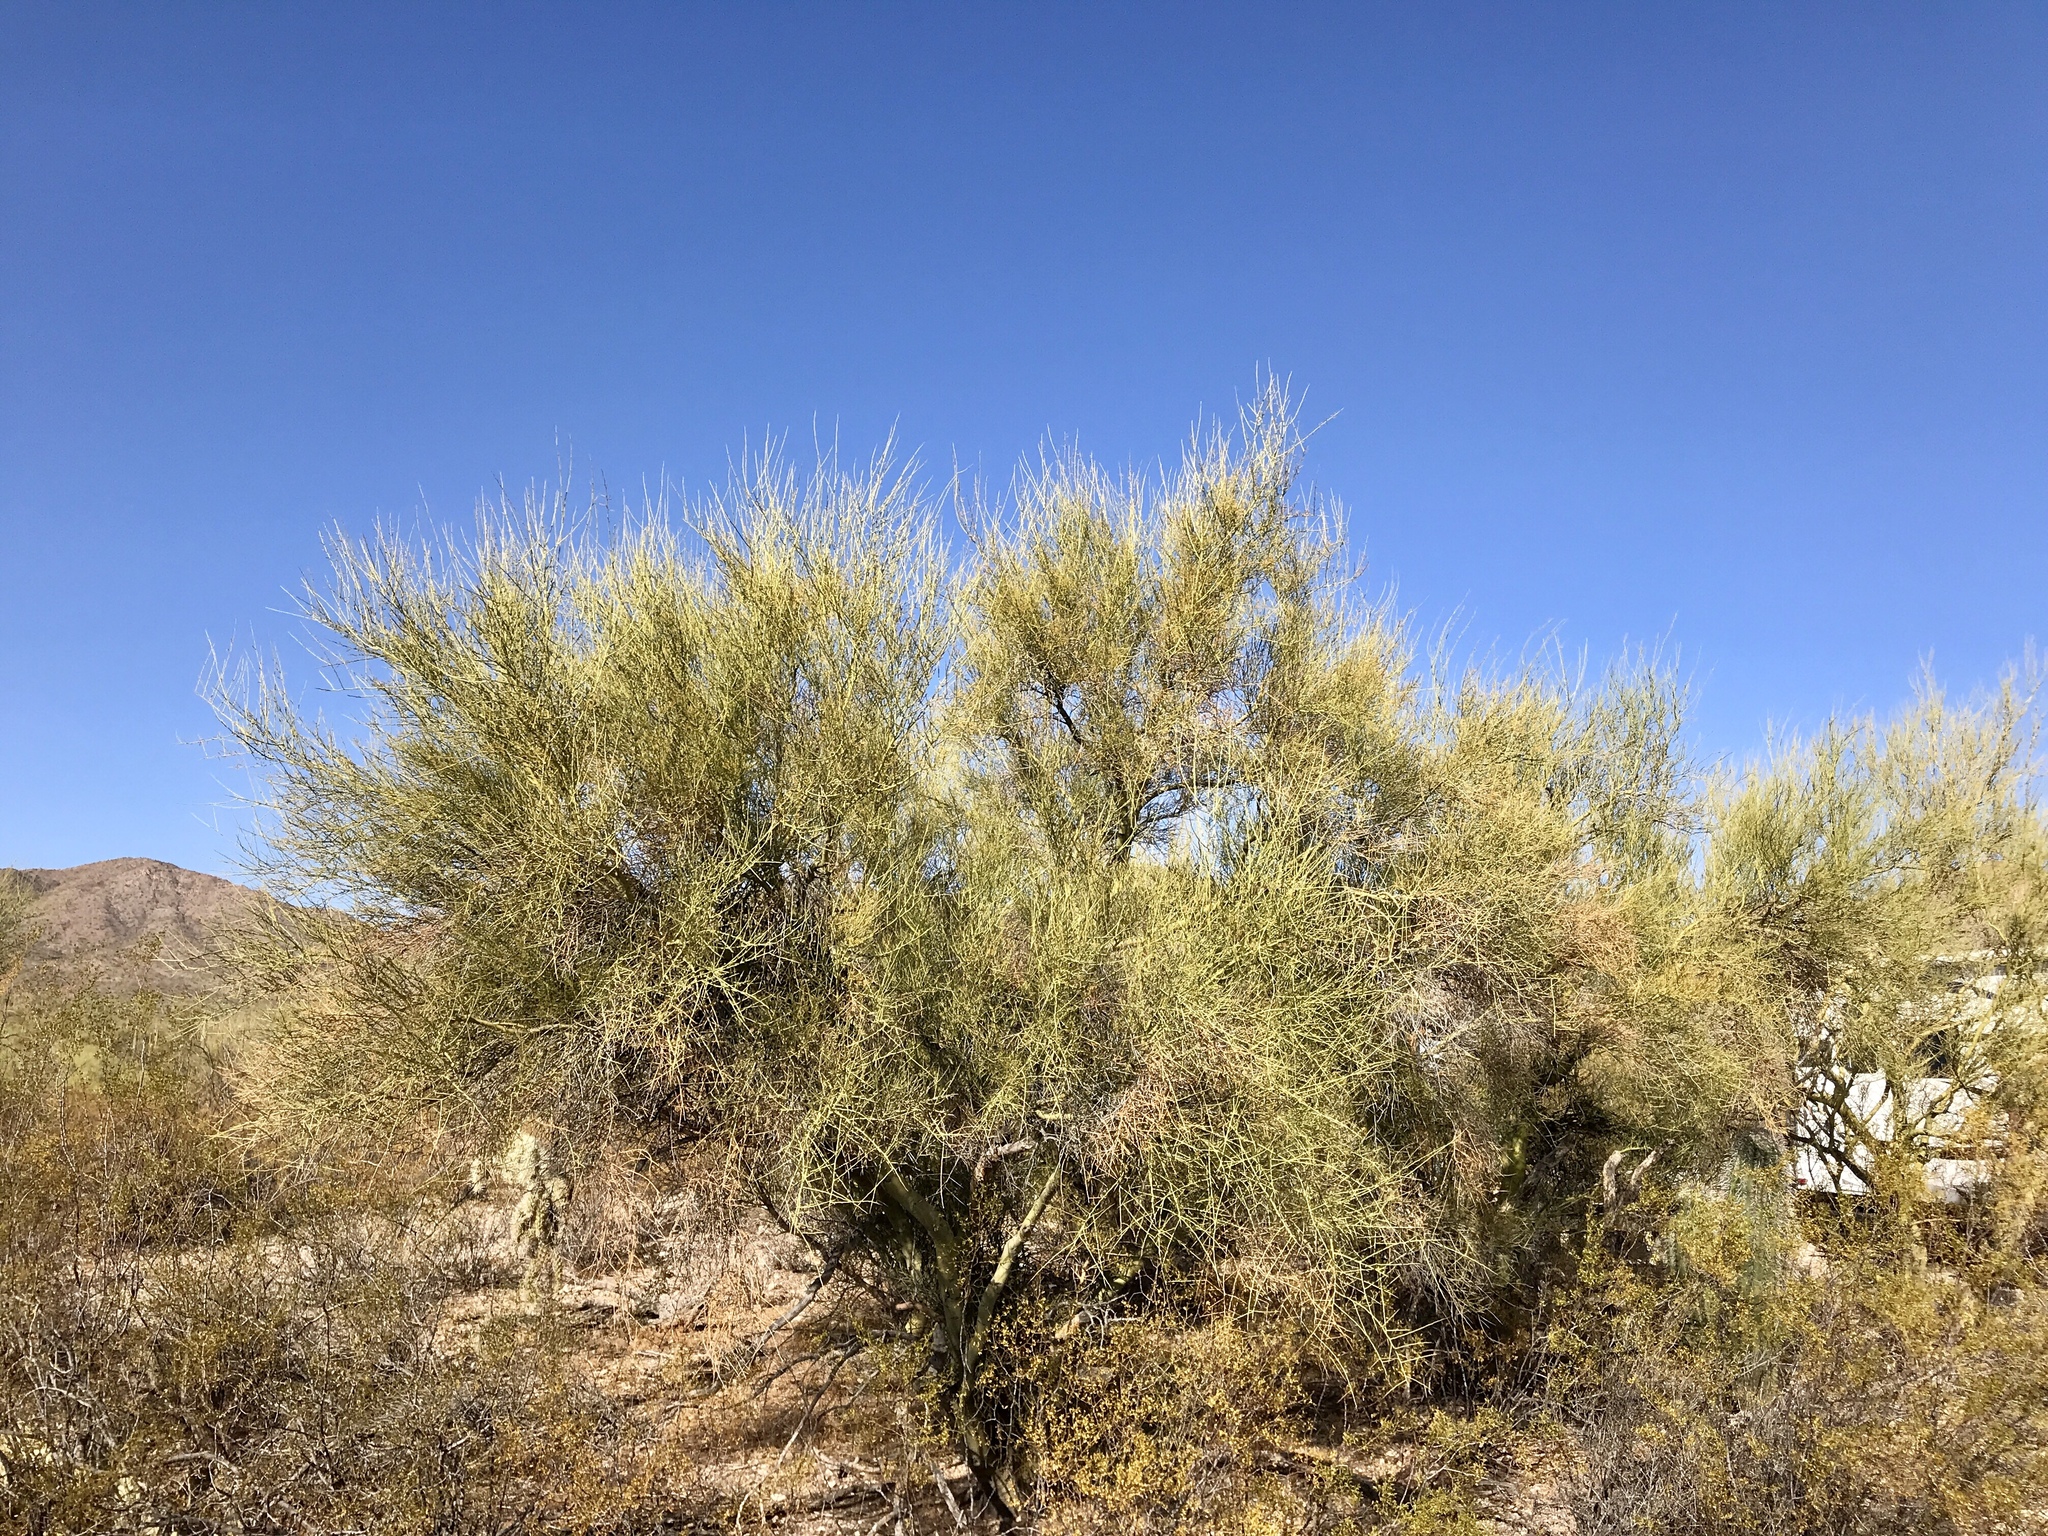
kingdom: Plantae
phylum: Tracheophyta
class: Magnoliopsida
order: Fabales
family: Fabaceae
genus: Parkinsonia
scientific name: Parkinsonia florida
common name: Blue paloverde
